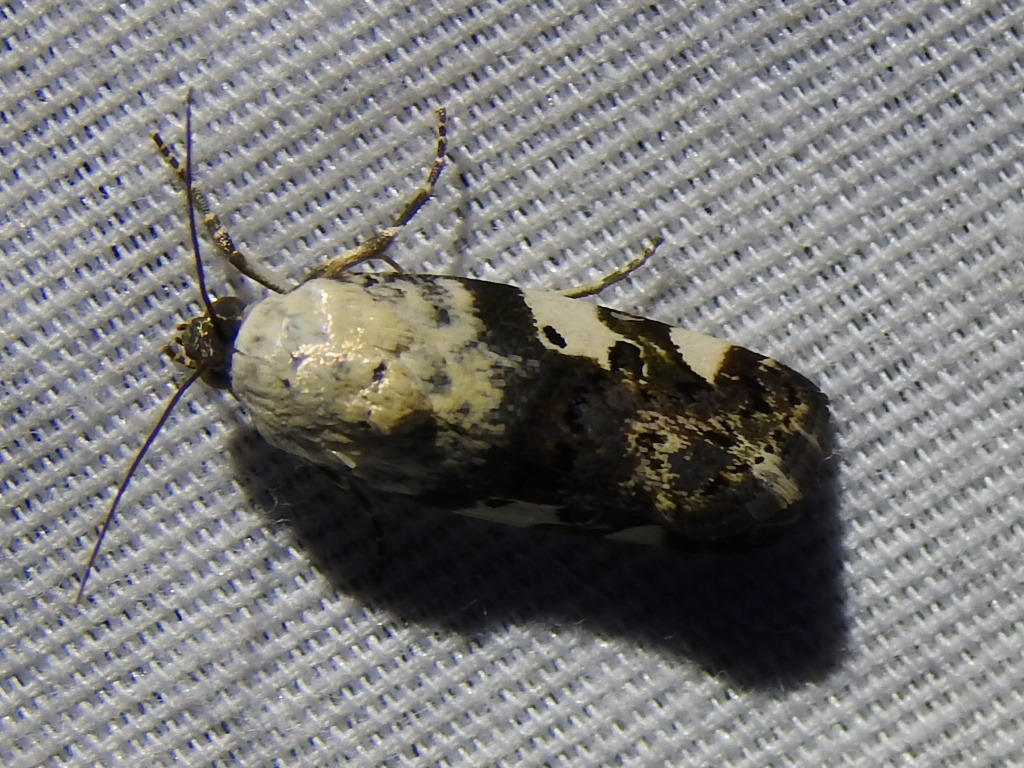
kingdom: Animalia
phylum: Arthropoda
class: Insecta
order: Lepidoptera
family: Noctuidae
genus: Acontia
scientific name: Acontia aprica
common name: Nun
